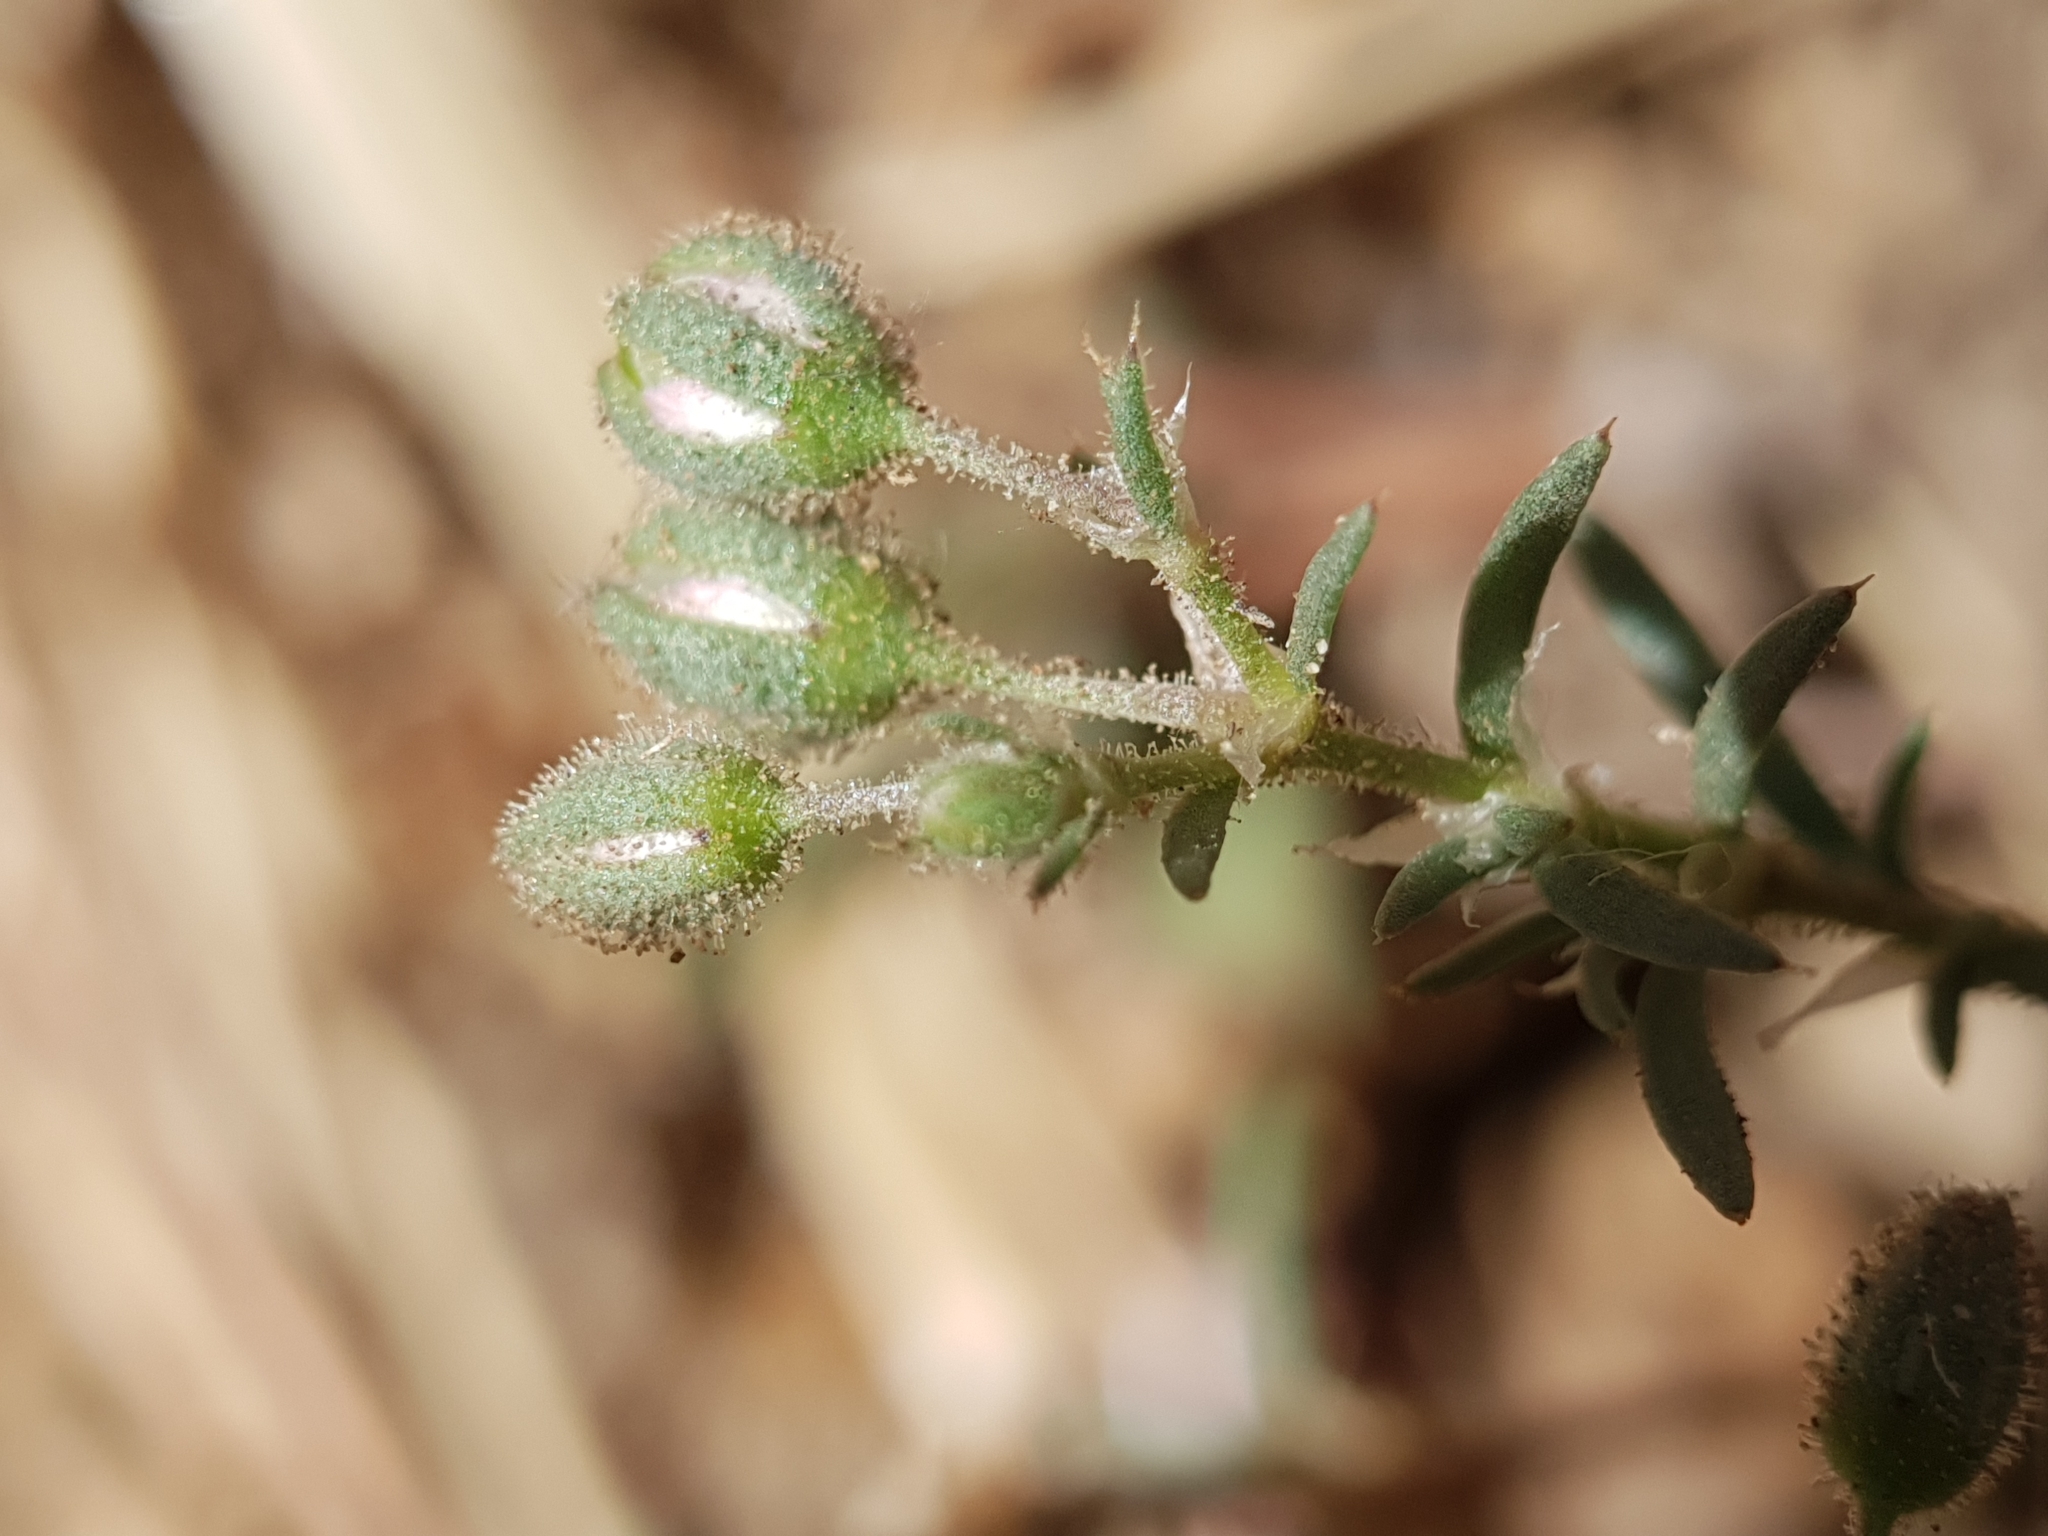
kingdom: Plantae
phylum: Tracheophyta
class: Magnoliopsida
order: Caryophyllales
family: Caryophyllaceae
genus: Spergularia
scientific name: Spergularia rubra
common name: Red sand-spurrey
